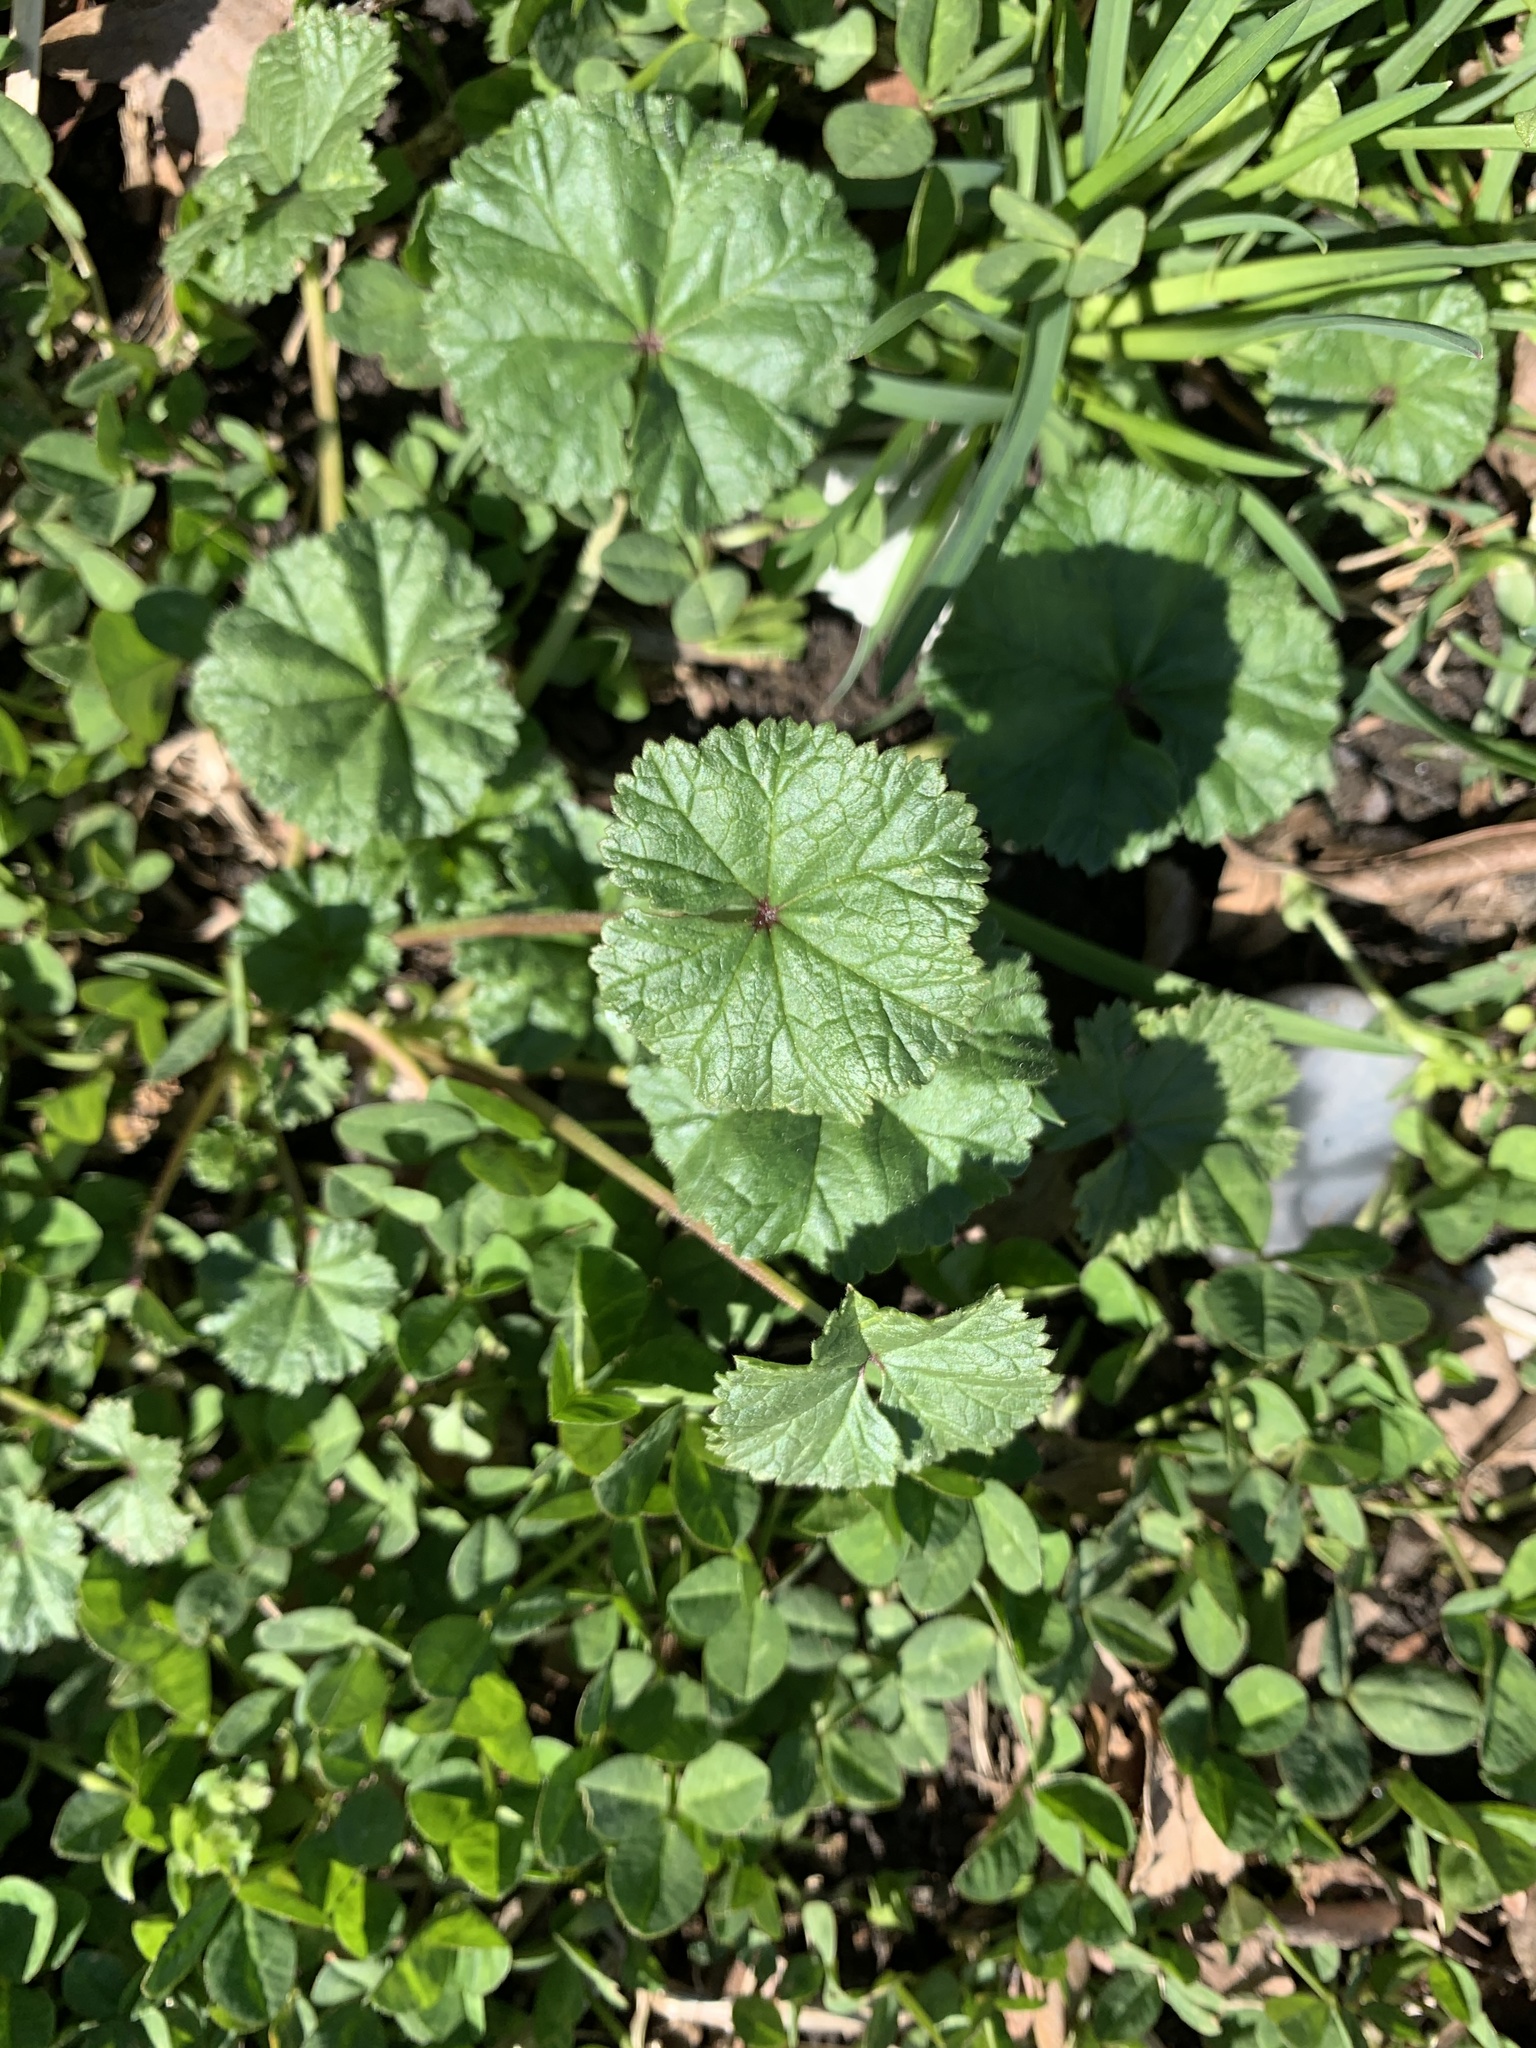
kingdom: Plantae
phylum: Tracheophyta
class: Magnoliopsida
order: Malvales
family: Malvaceae
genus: Malva
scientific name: Malva neglecta
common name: Common mallow
